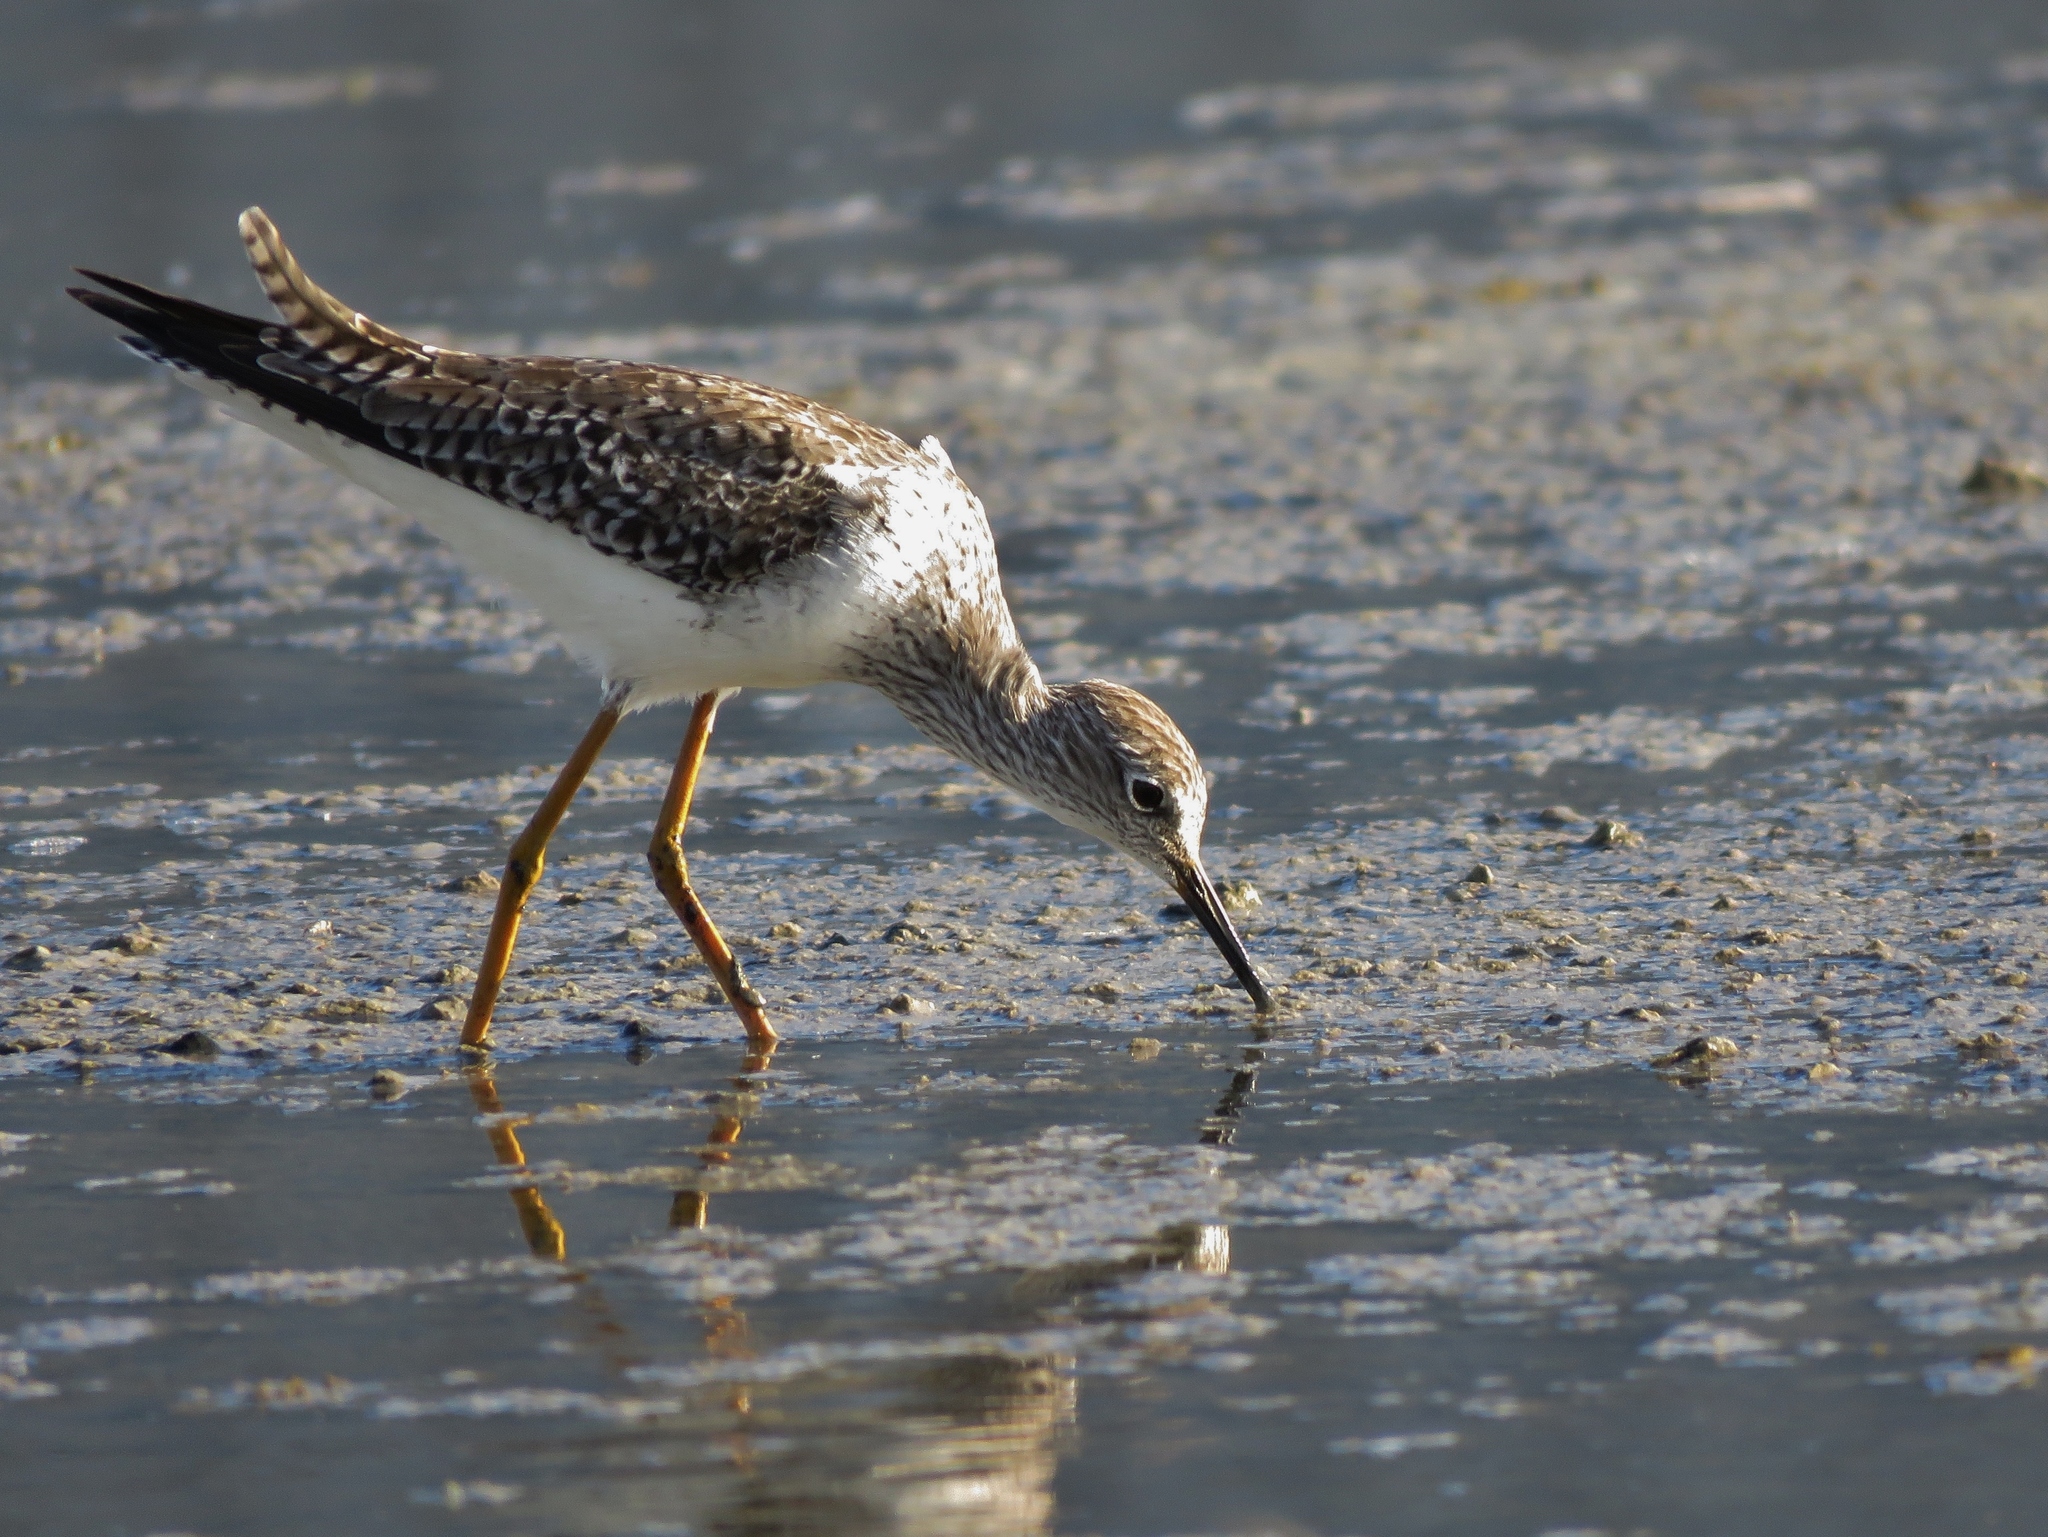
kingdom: Animalia
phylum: Chordata
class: Aves
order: Charadriiformes
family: Scolopacidae
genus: Tringa
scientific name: Tringa flavipes
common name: Lesser yellowlegs
